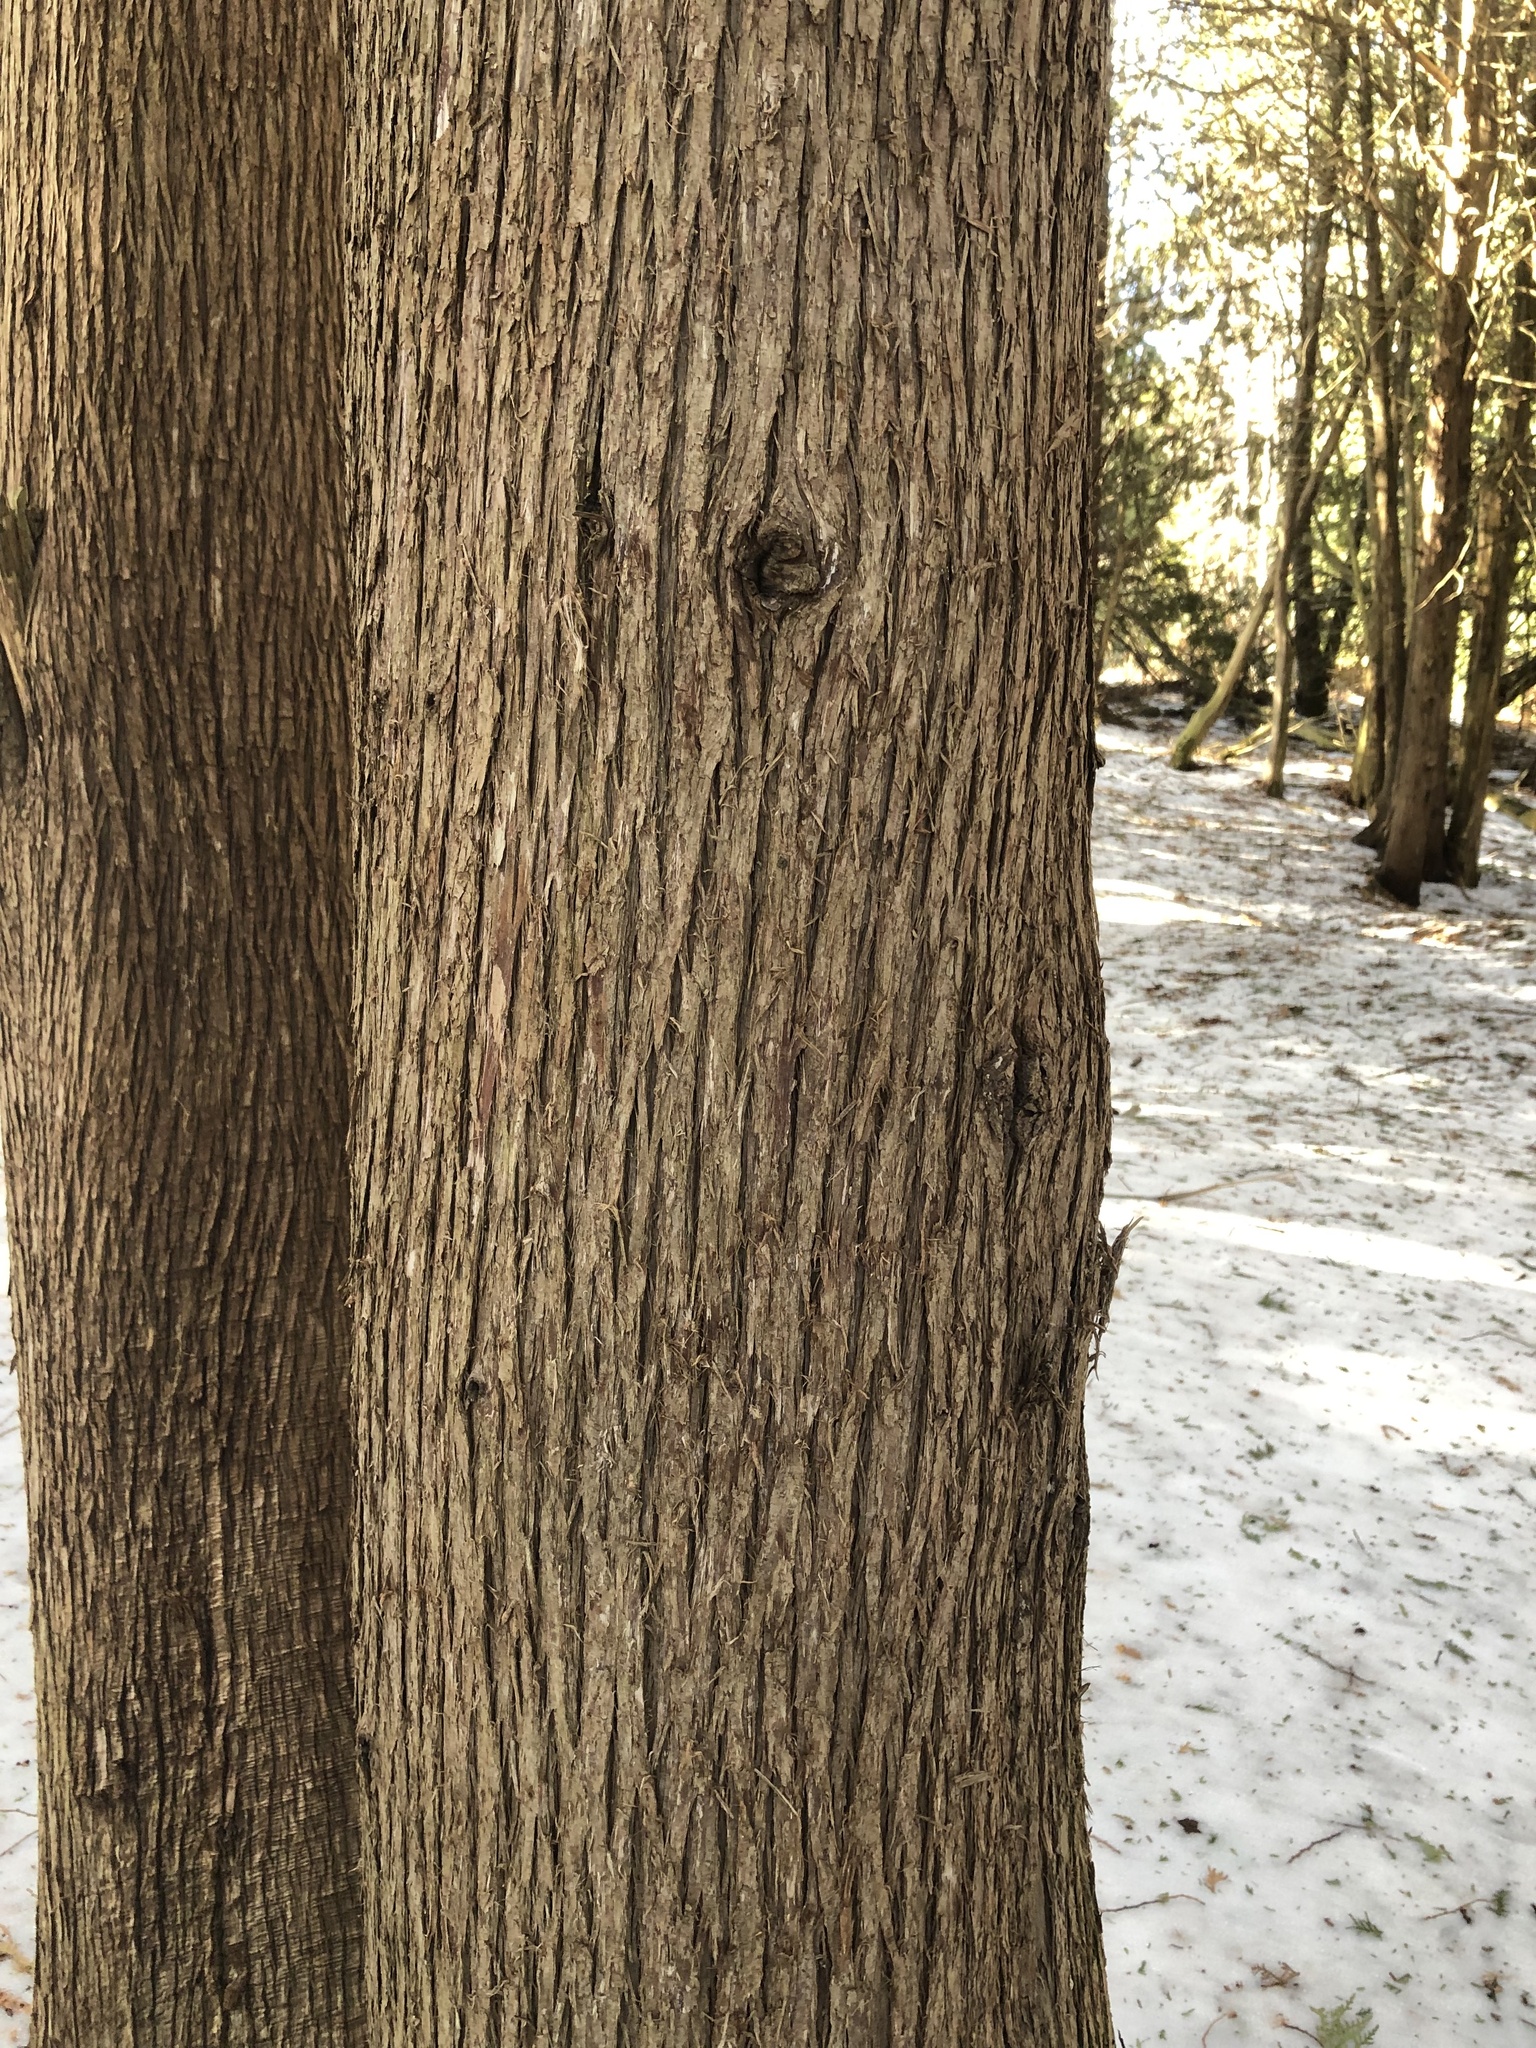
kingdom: Plantae
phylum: Tracheophyta
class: Pinopsida
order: Pinales
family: Cupressaceae
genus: Thuja
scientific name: Thuja occidentalis
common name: Northern white-cedar
